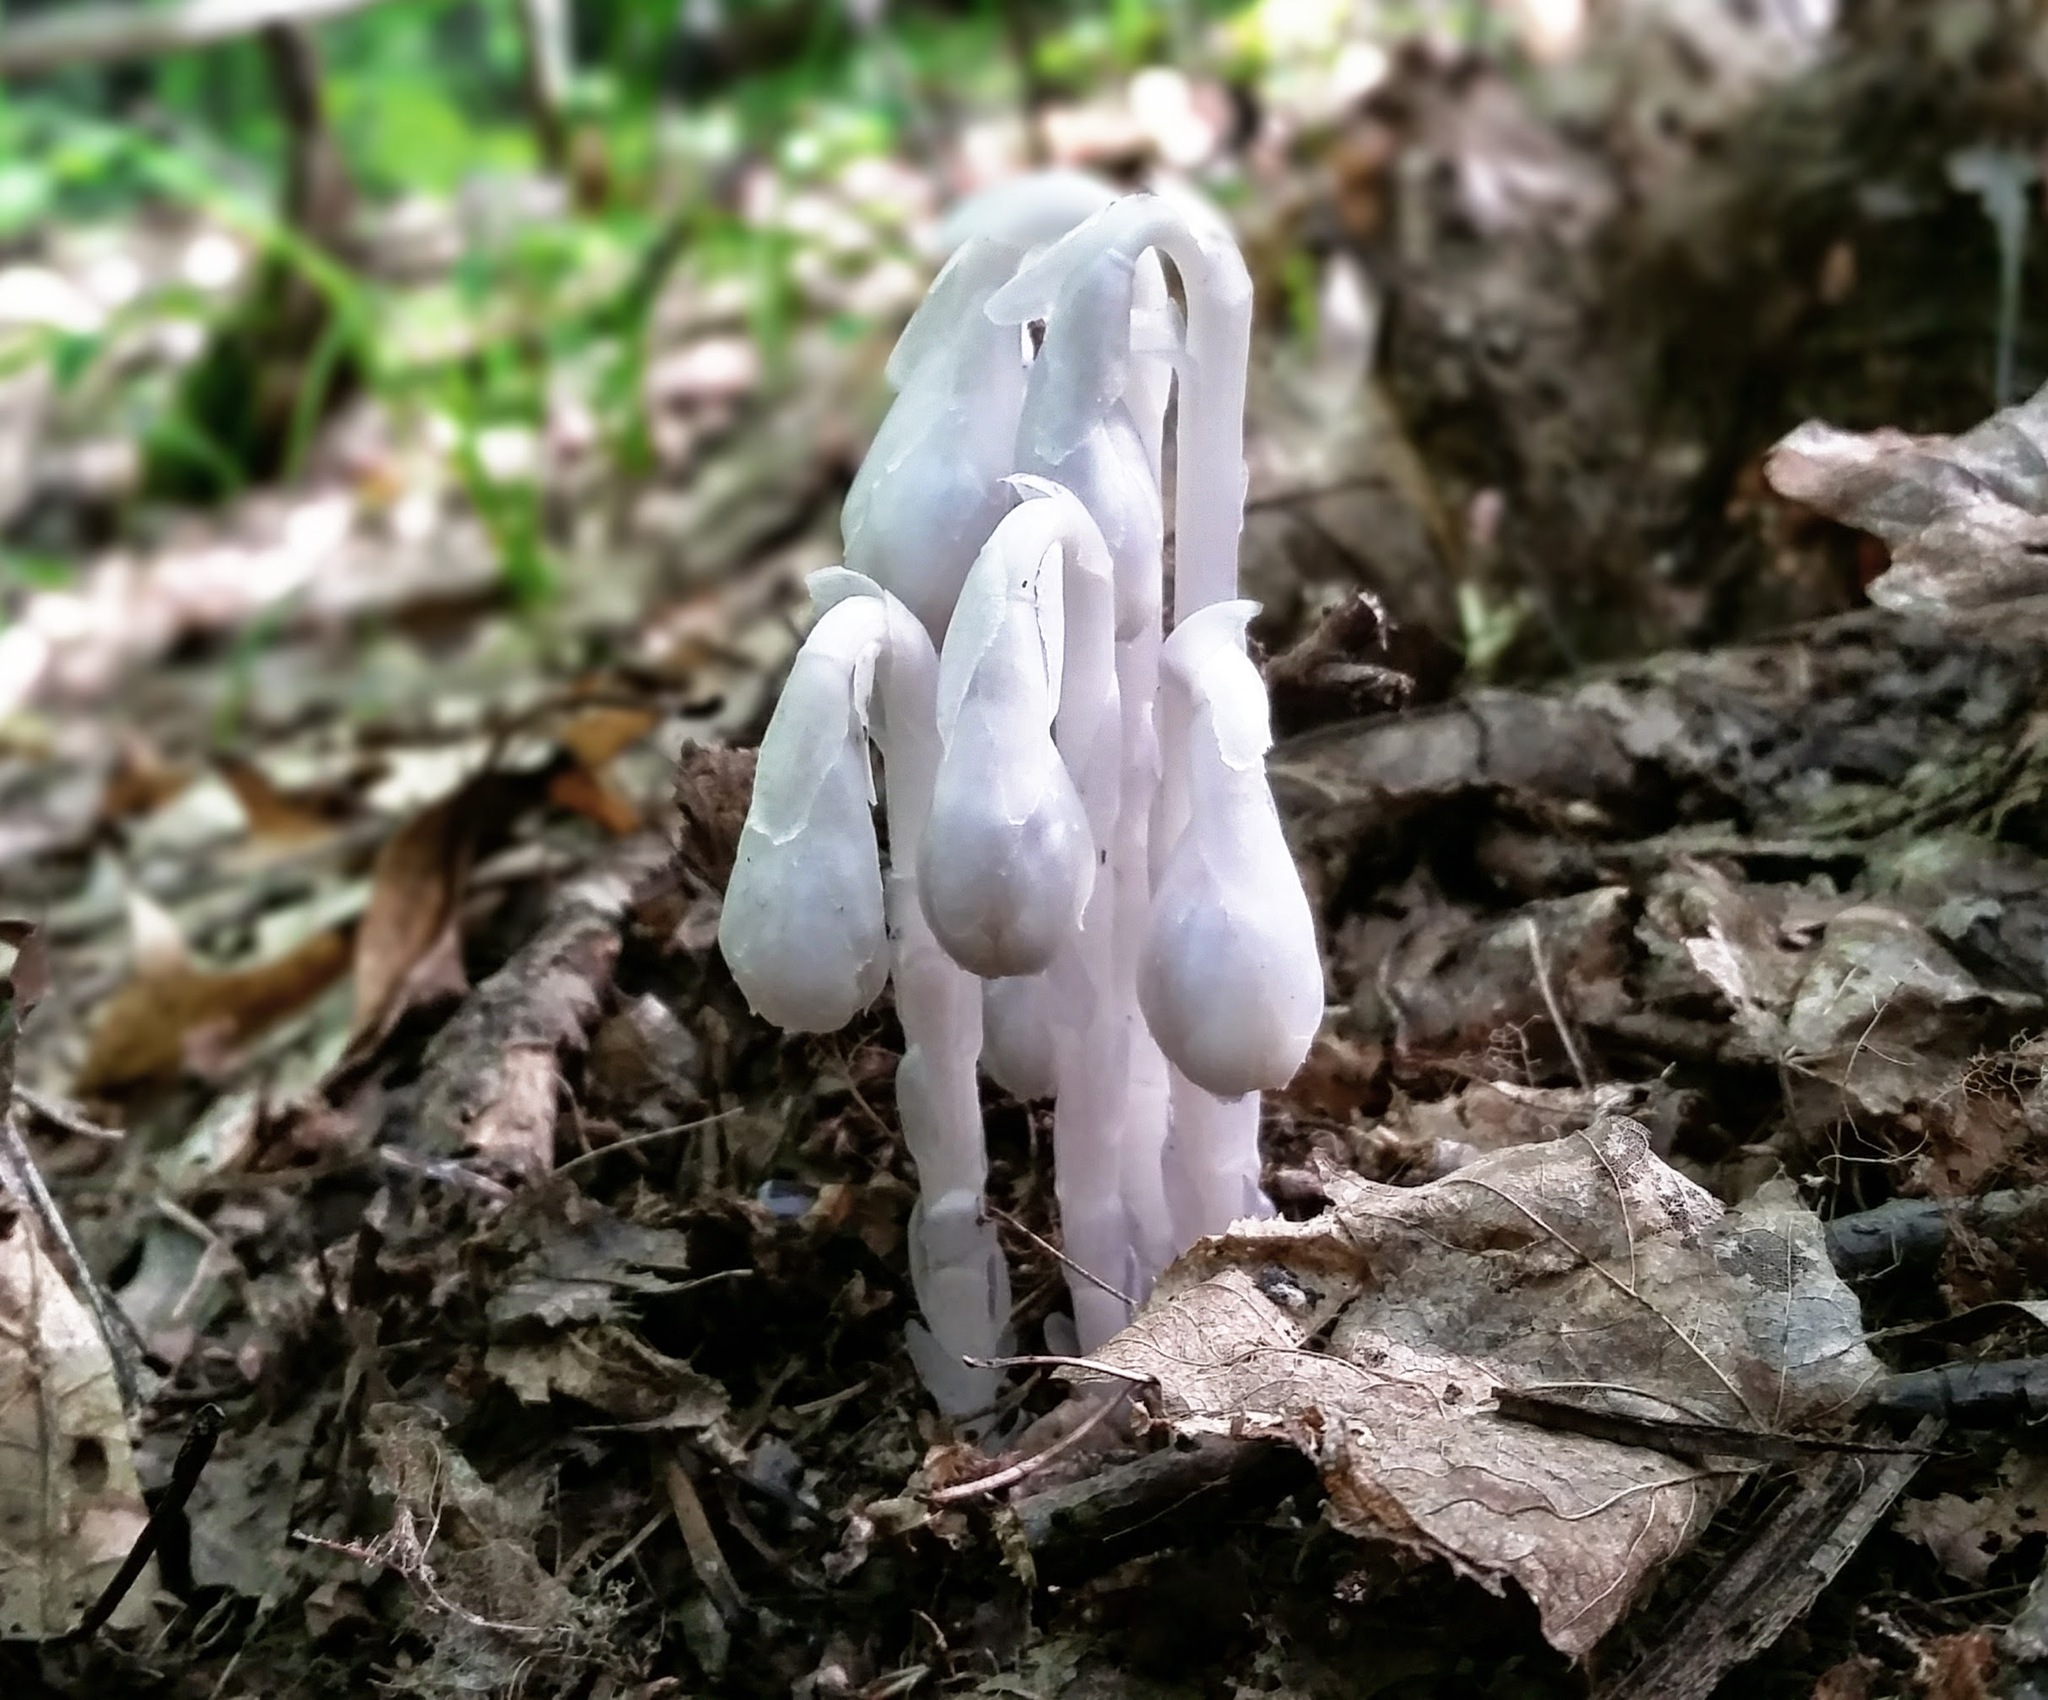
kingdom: Plantae
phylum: Tracheophyta
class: Magnoliopsida
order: Ericales
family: Ericaceae
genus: Monotropa
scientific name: Monotropa uniflora
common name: Convulsion root
